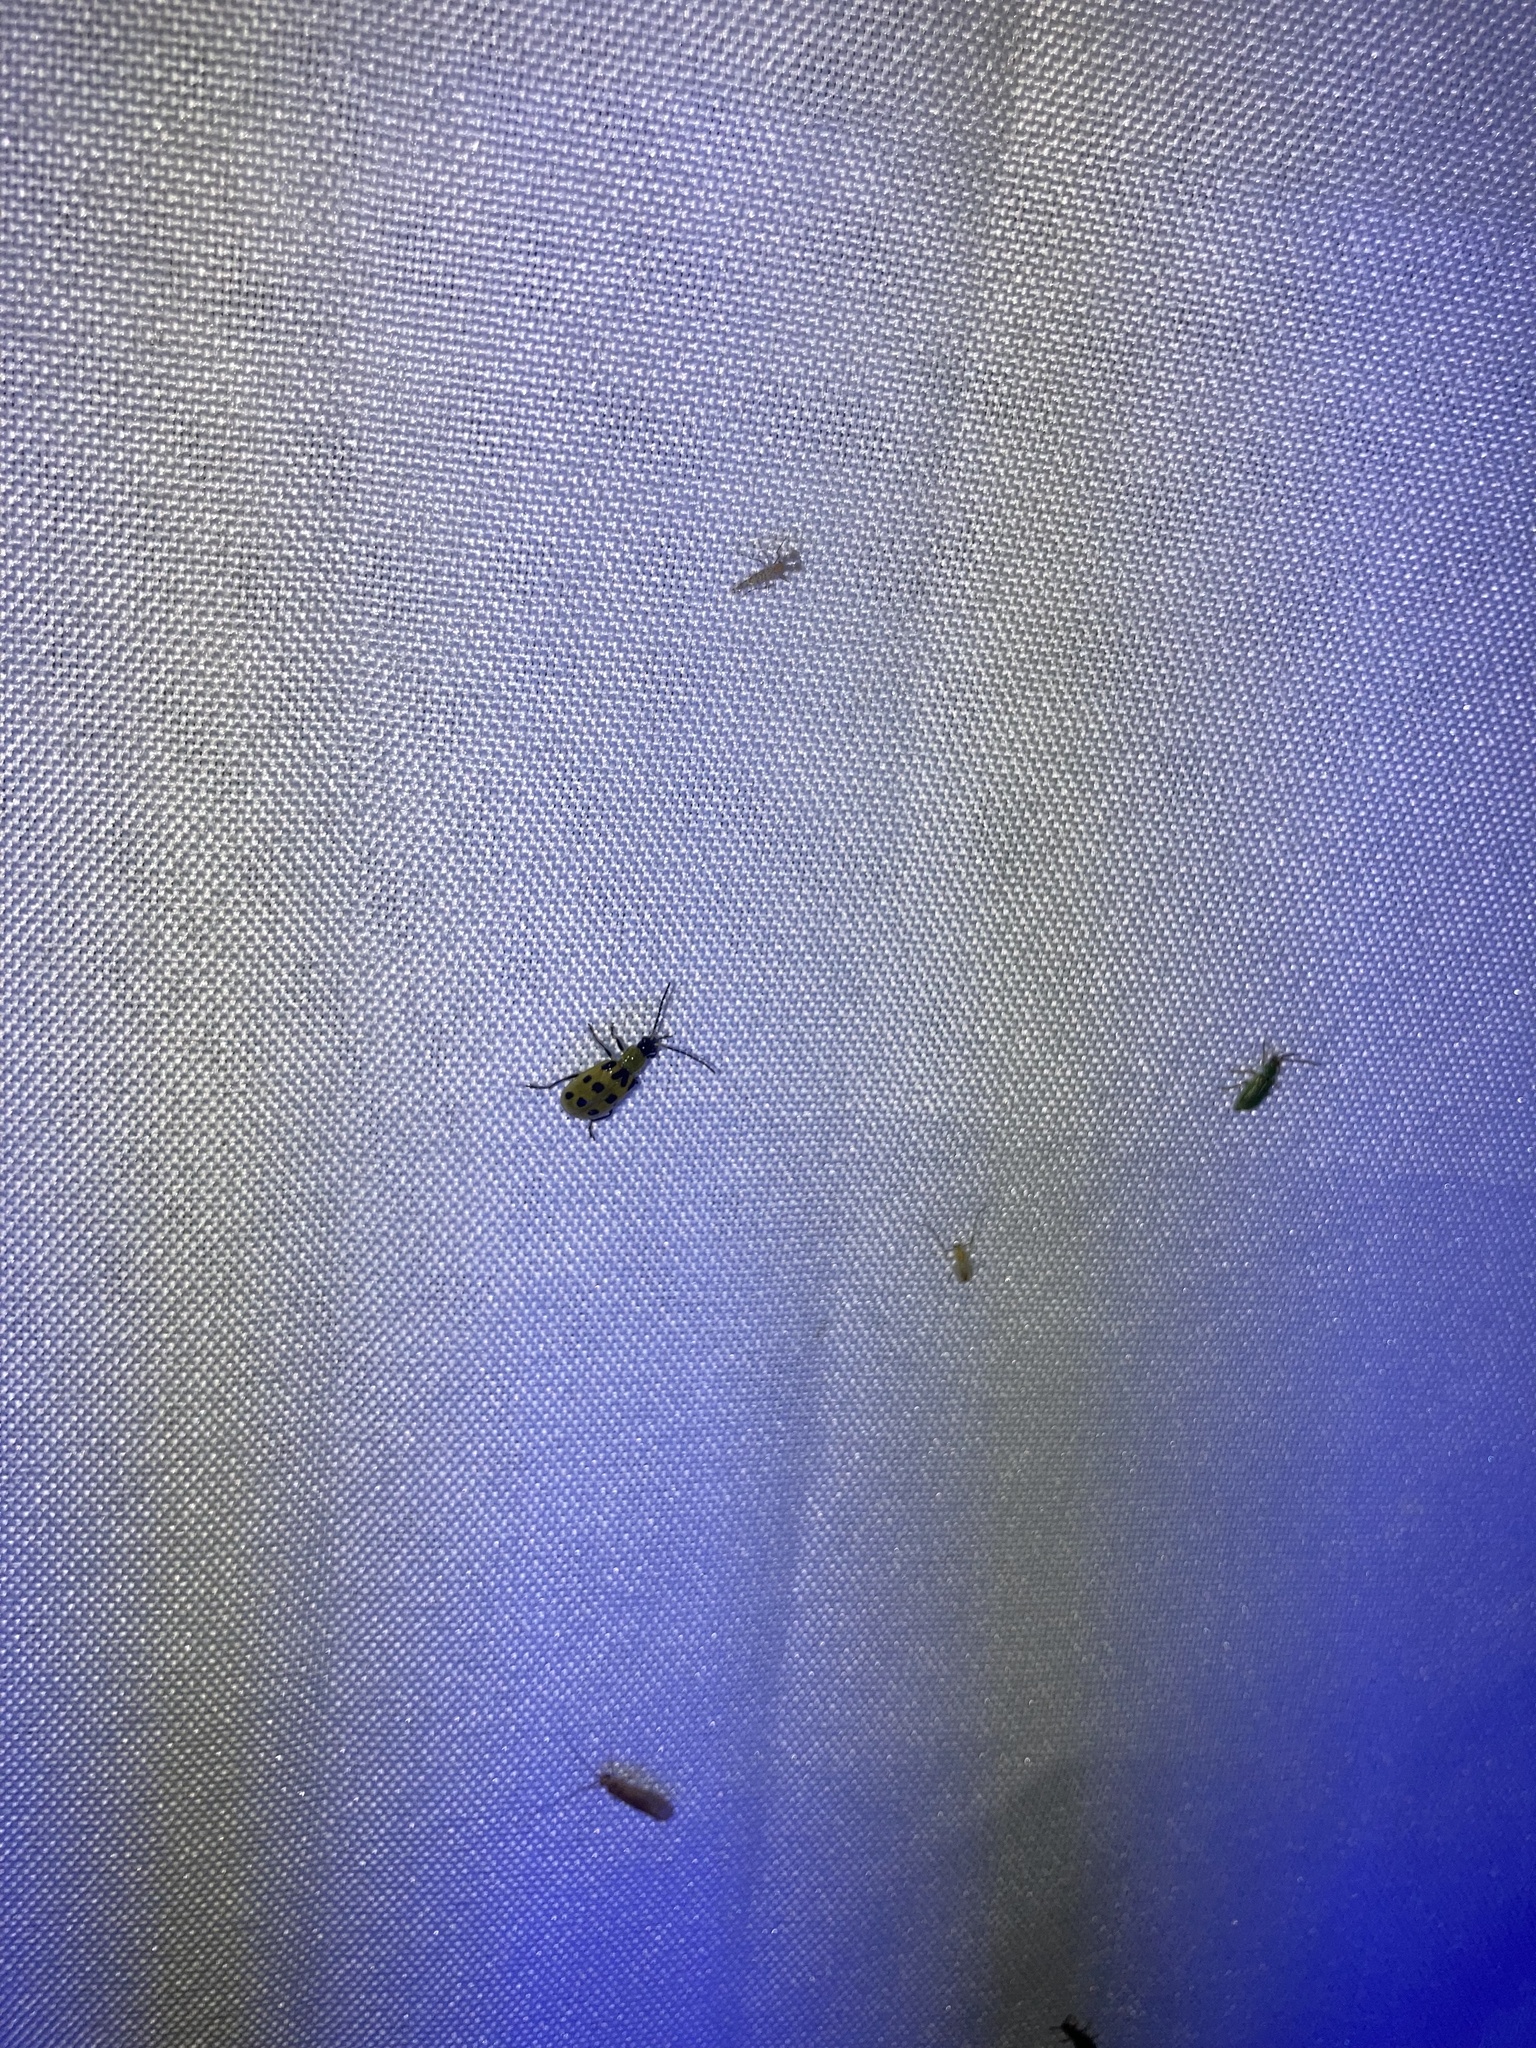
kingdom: Animalia
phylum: Arthropoda
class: Insecta
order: Coleoptera
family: Chrysomelidae
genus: Diabrotica
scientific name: Diabrotica undecimpunctata
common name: Spotted cucumber beetle
